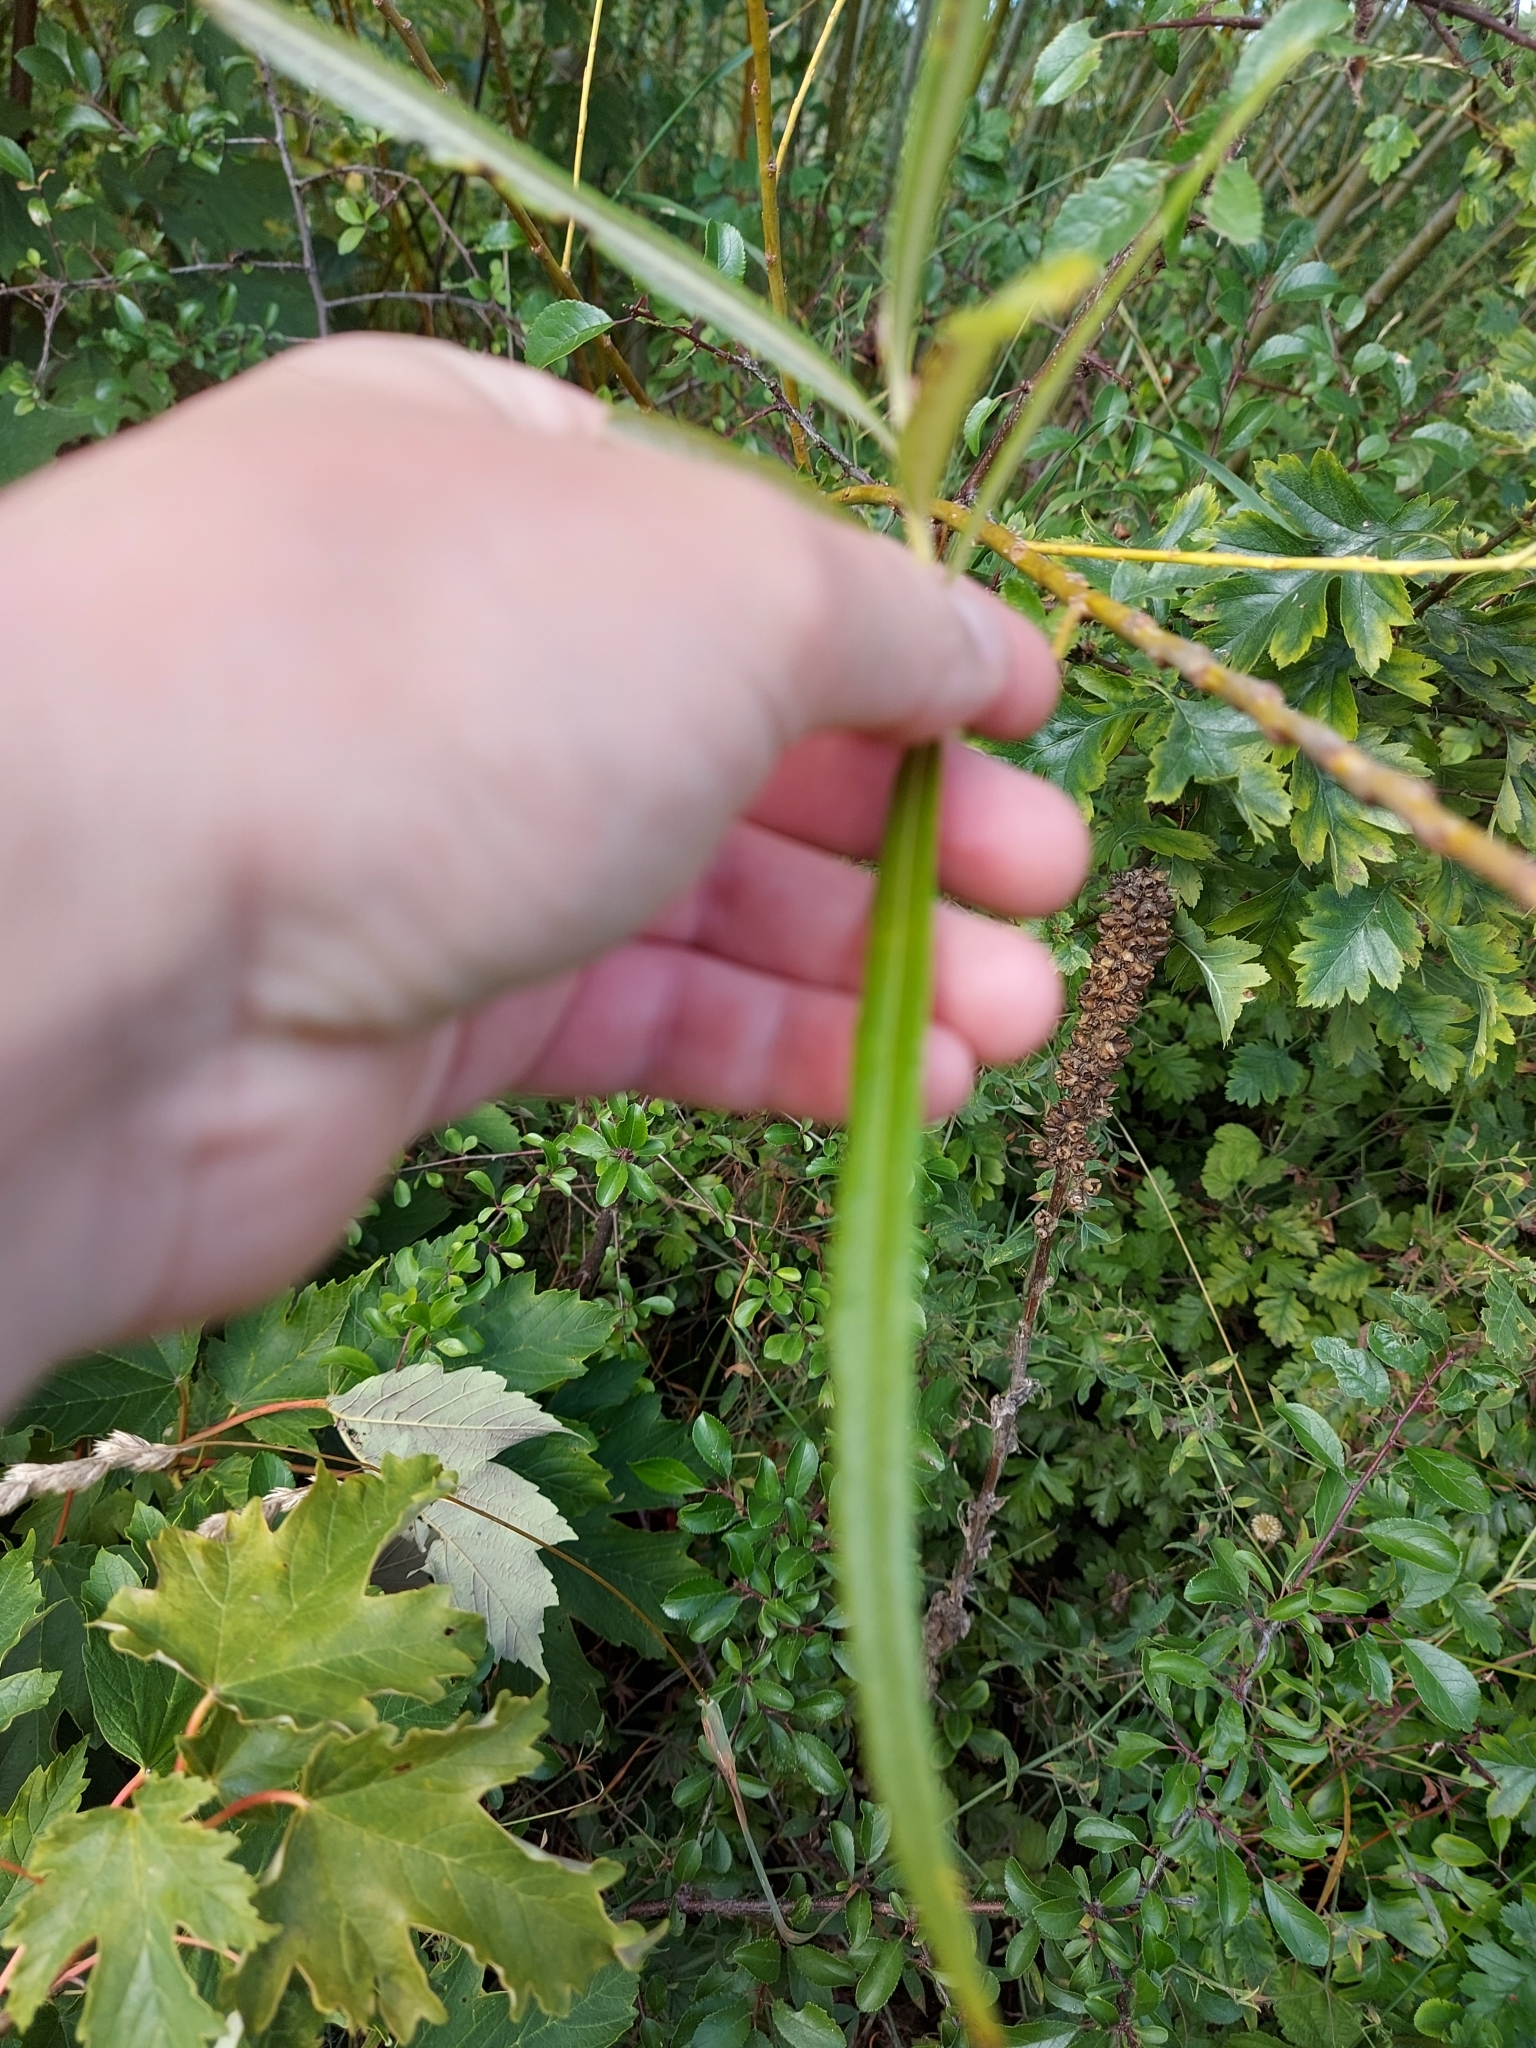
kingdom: Plantae
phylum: Tracheophyta
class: Magnoliopsida
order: Rosales
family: Elaeagnaceae
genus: Hippophae
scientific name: Hippophae rhamnoides
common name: Sea-buckthorn
